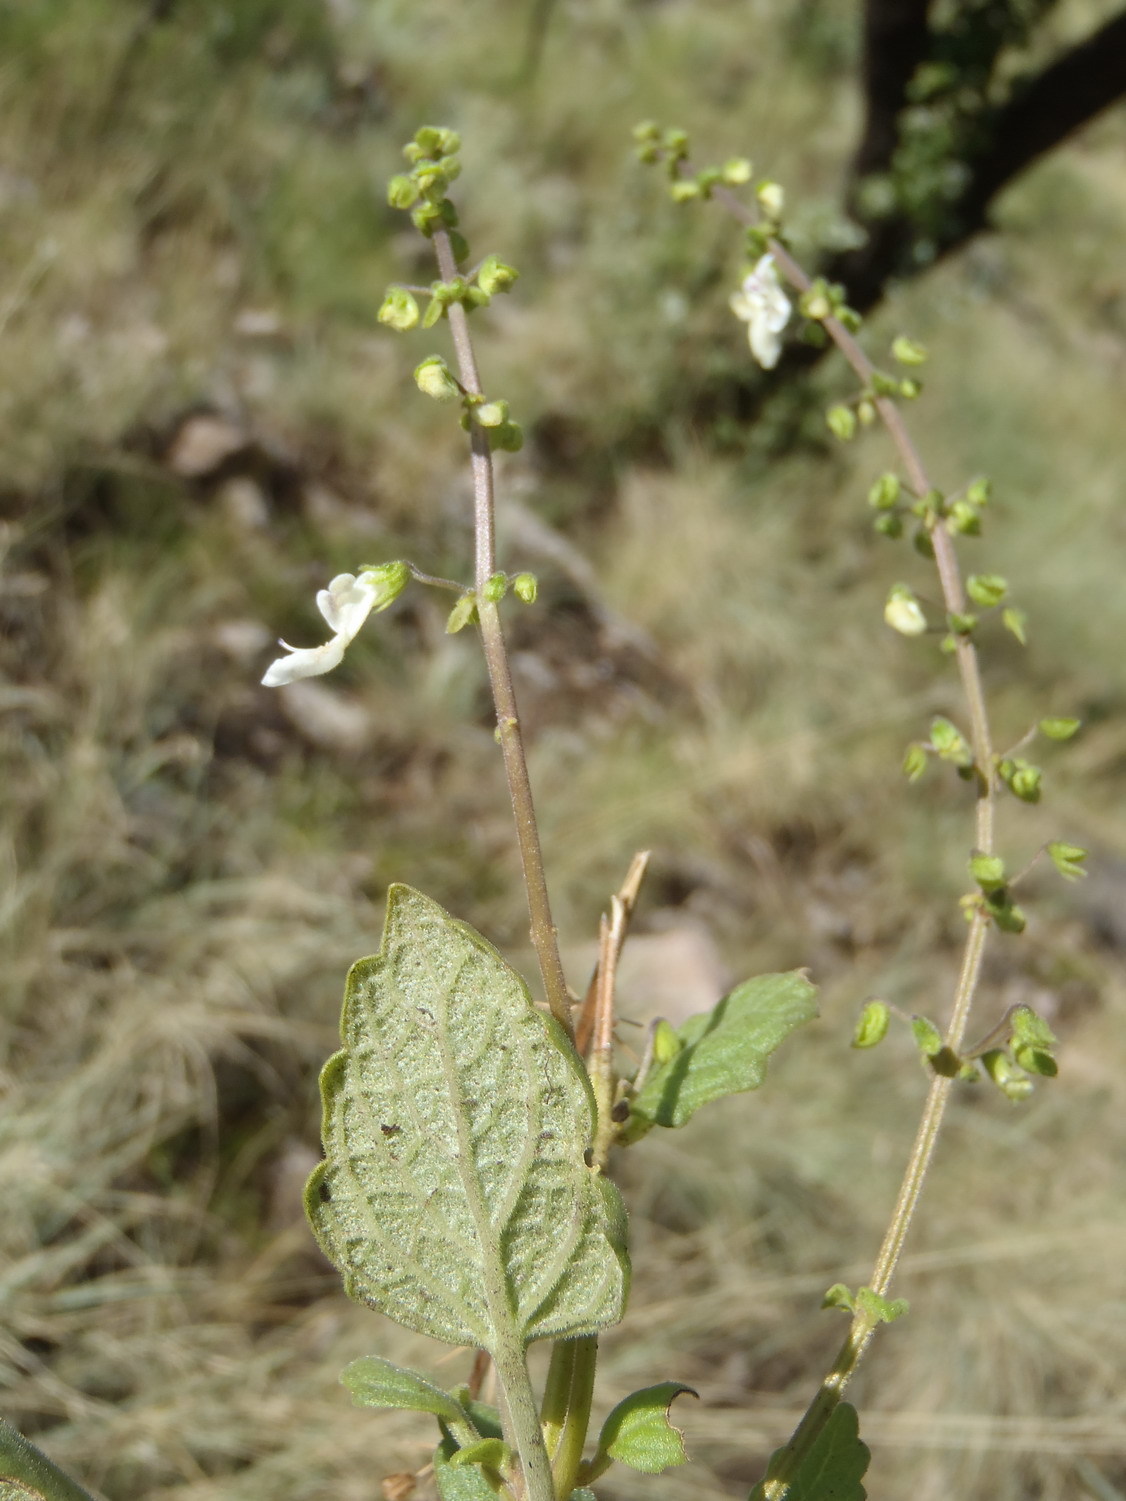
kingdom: Plantae
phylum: Tracheophyta
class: Magnoliopsida
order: Lamiales
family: Lamiaceae
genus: Coleus
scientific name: Coleus madagascariensis
